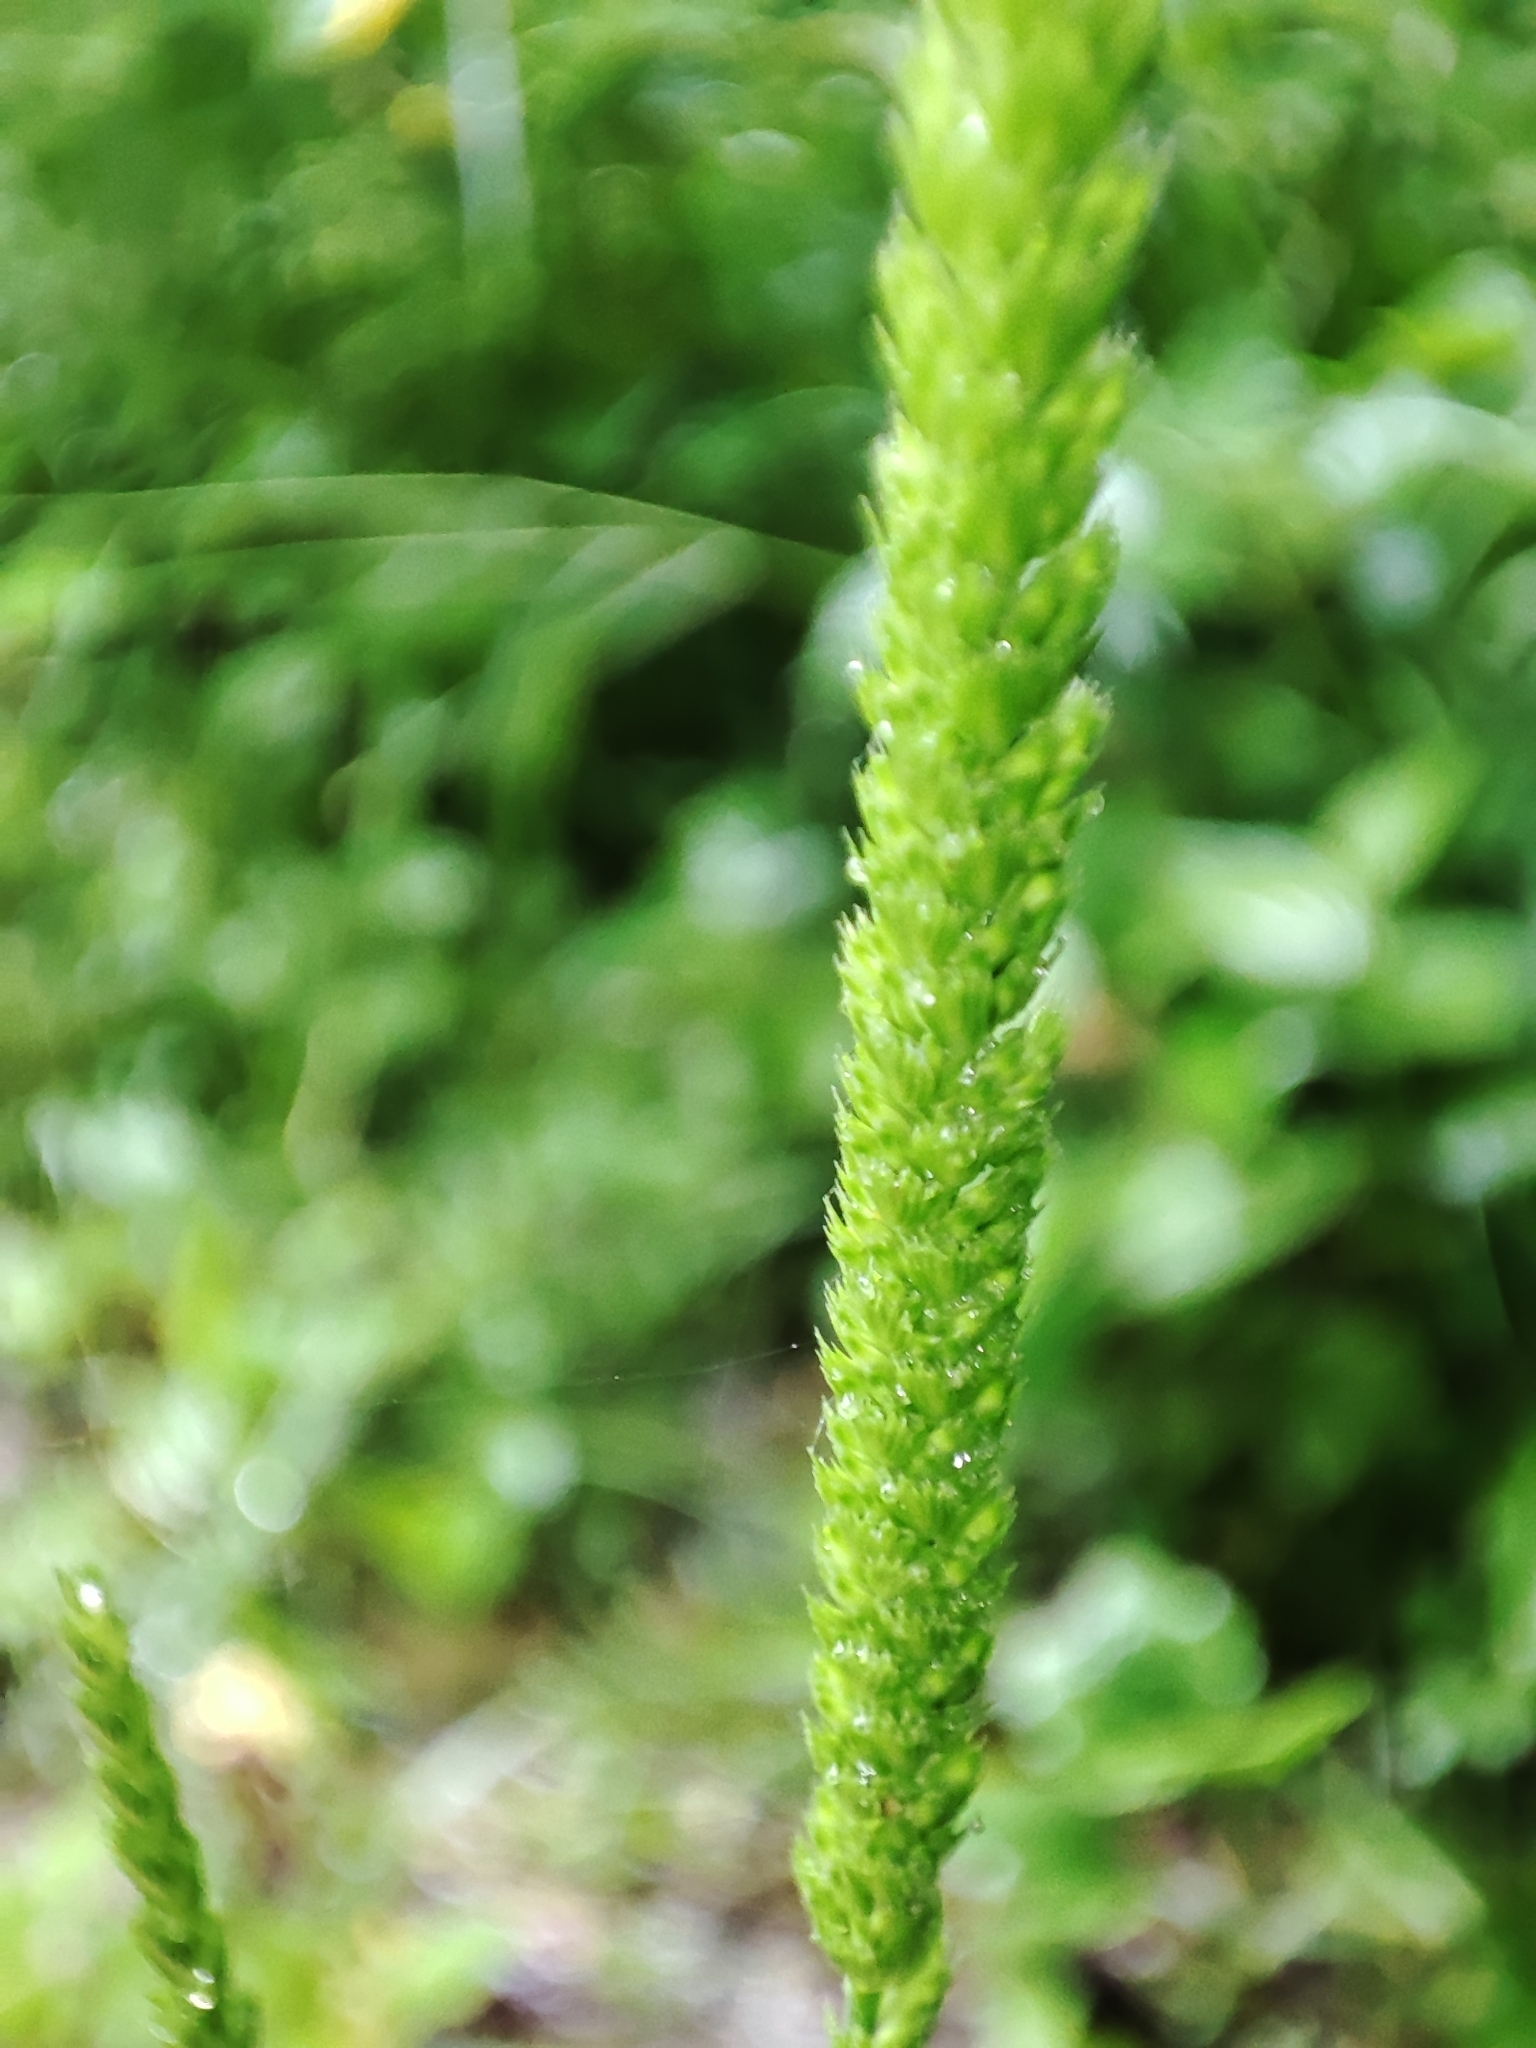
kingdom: Plantae
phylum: Tracheophyta
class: Liliopsida
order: Poales
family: Poaceae
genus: Cynosurus
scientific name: Cynosurus cristatus
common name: Crested dog's-tail
